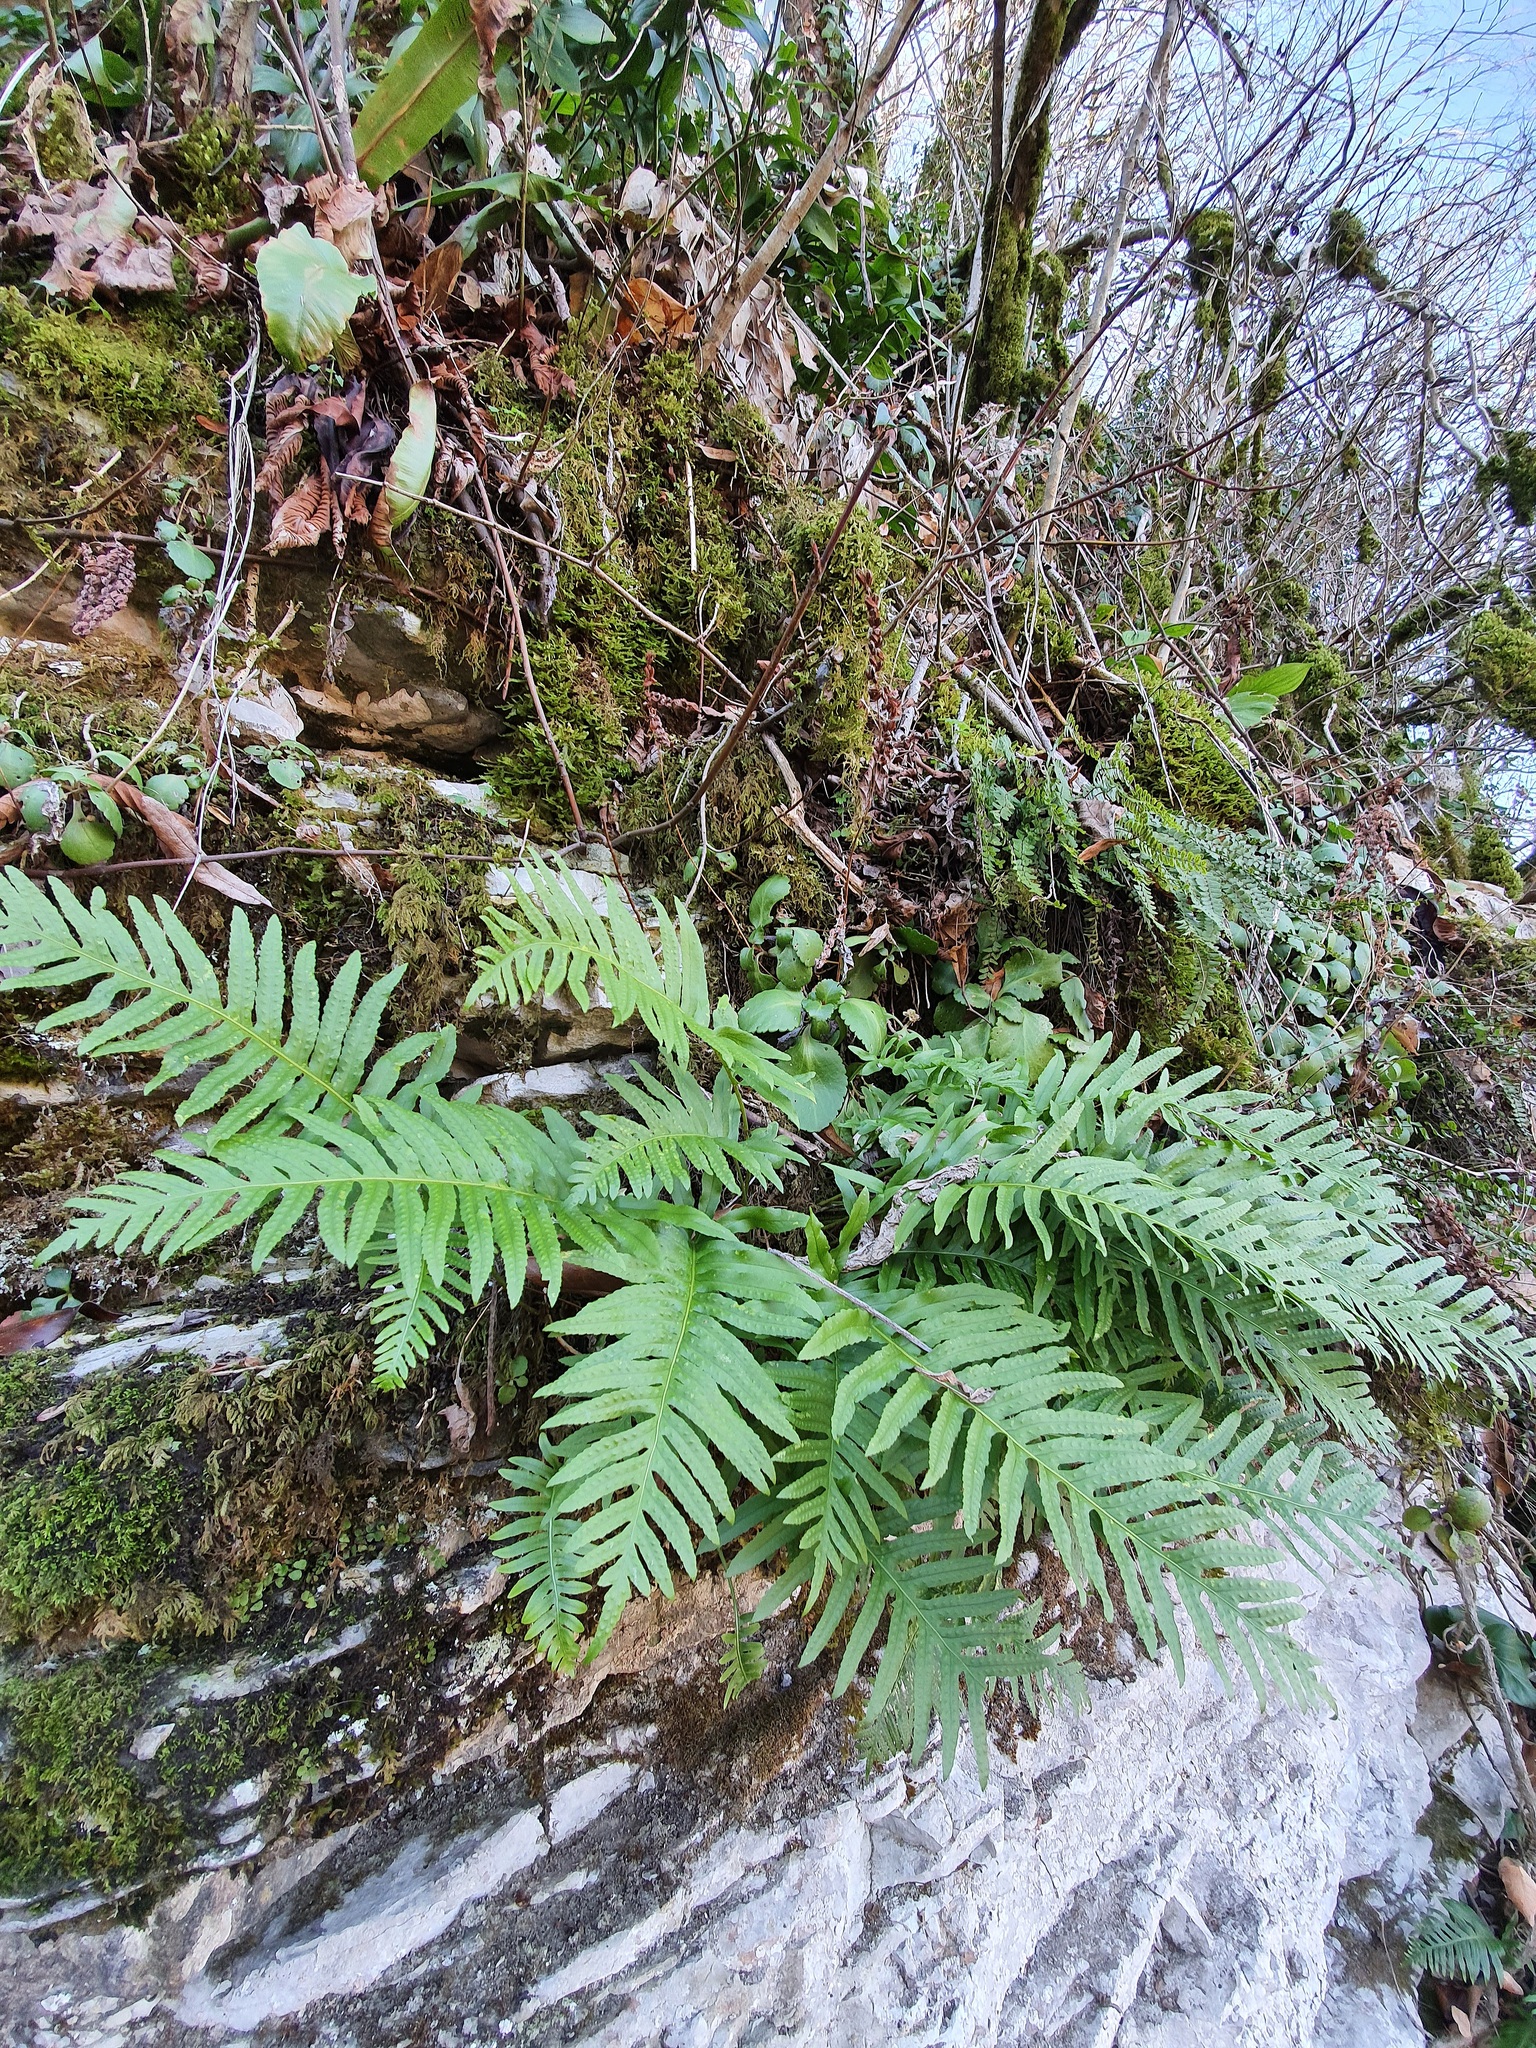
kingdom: Plantae
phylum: Tracheophyta
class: Polypodiopsida
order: Polypodiales
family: Polypodiaceae
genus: Polypodium
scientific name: Polypodium cambricum
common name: Southern polypody
